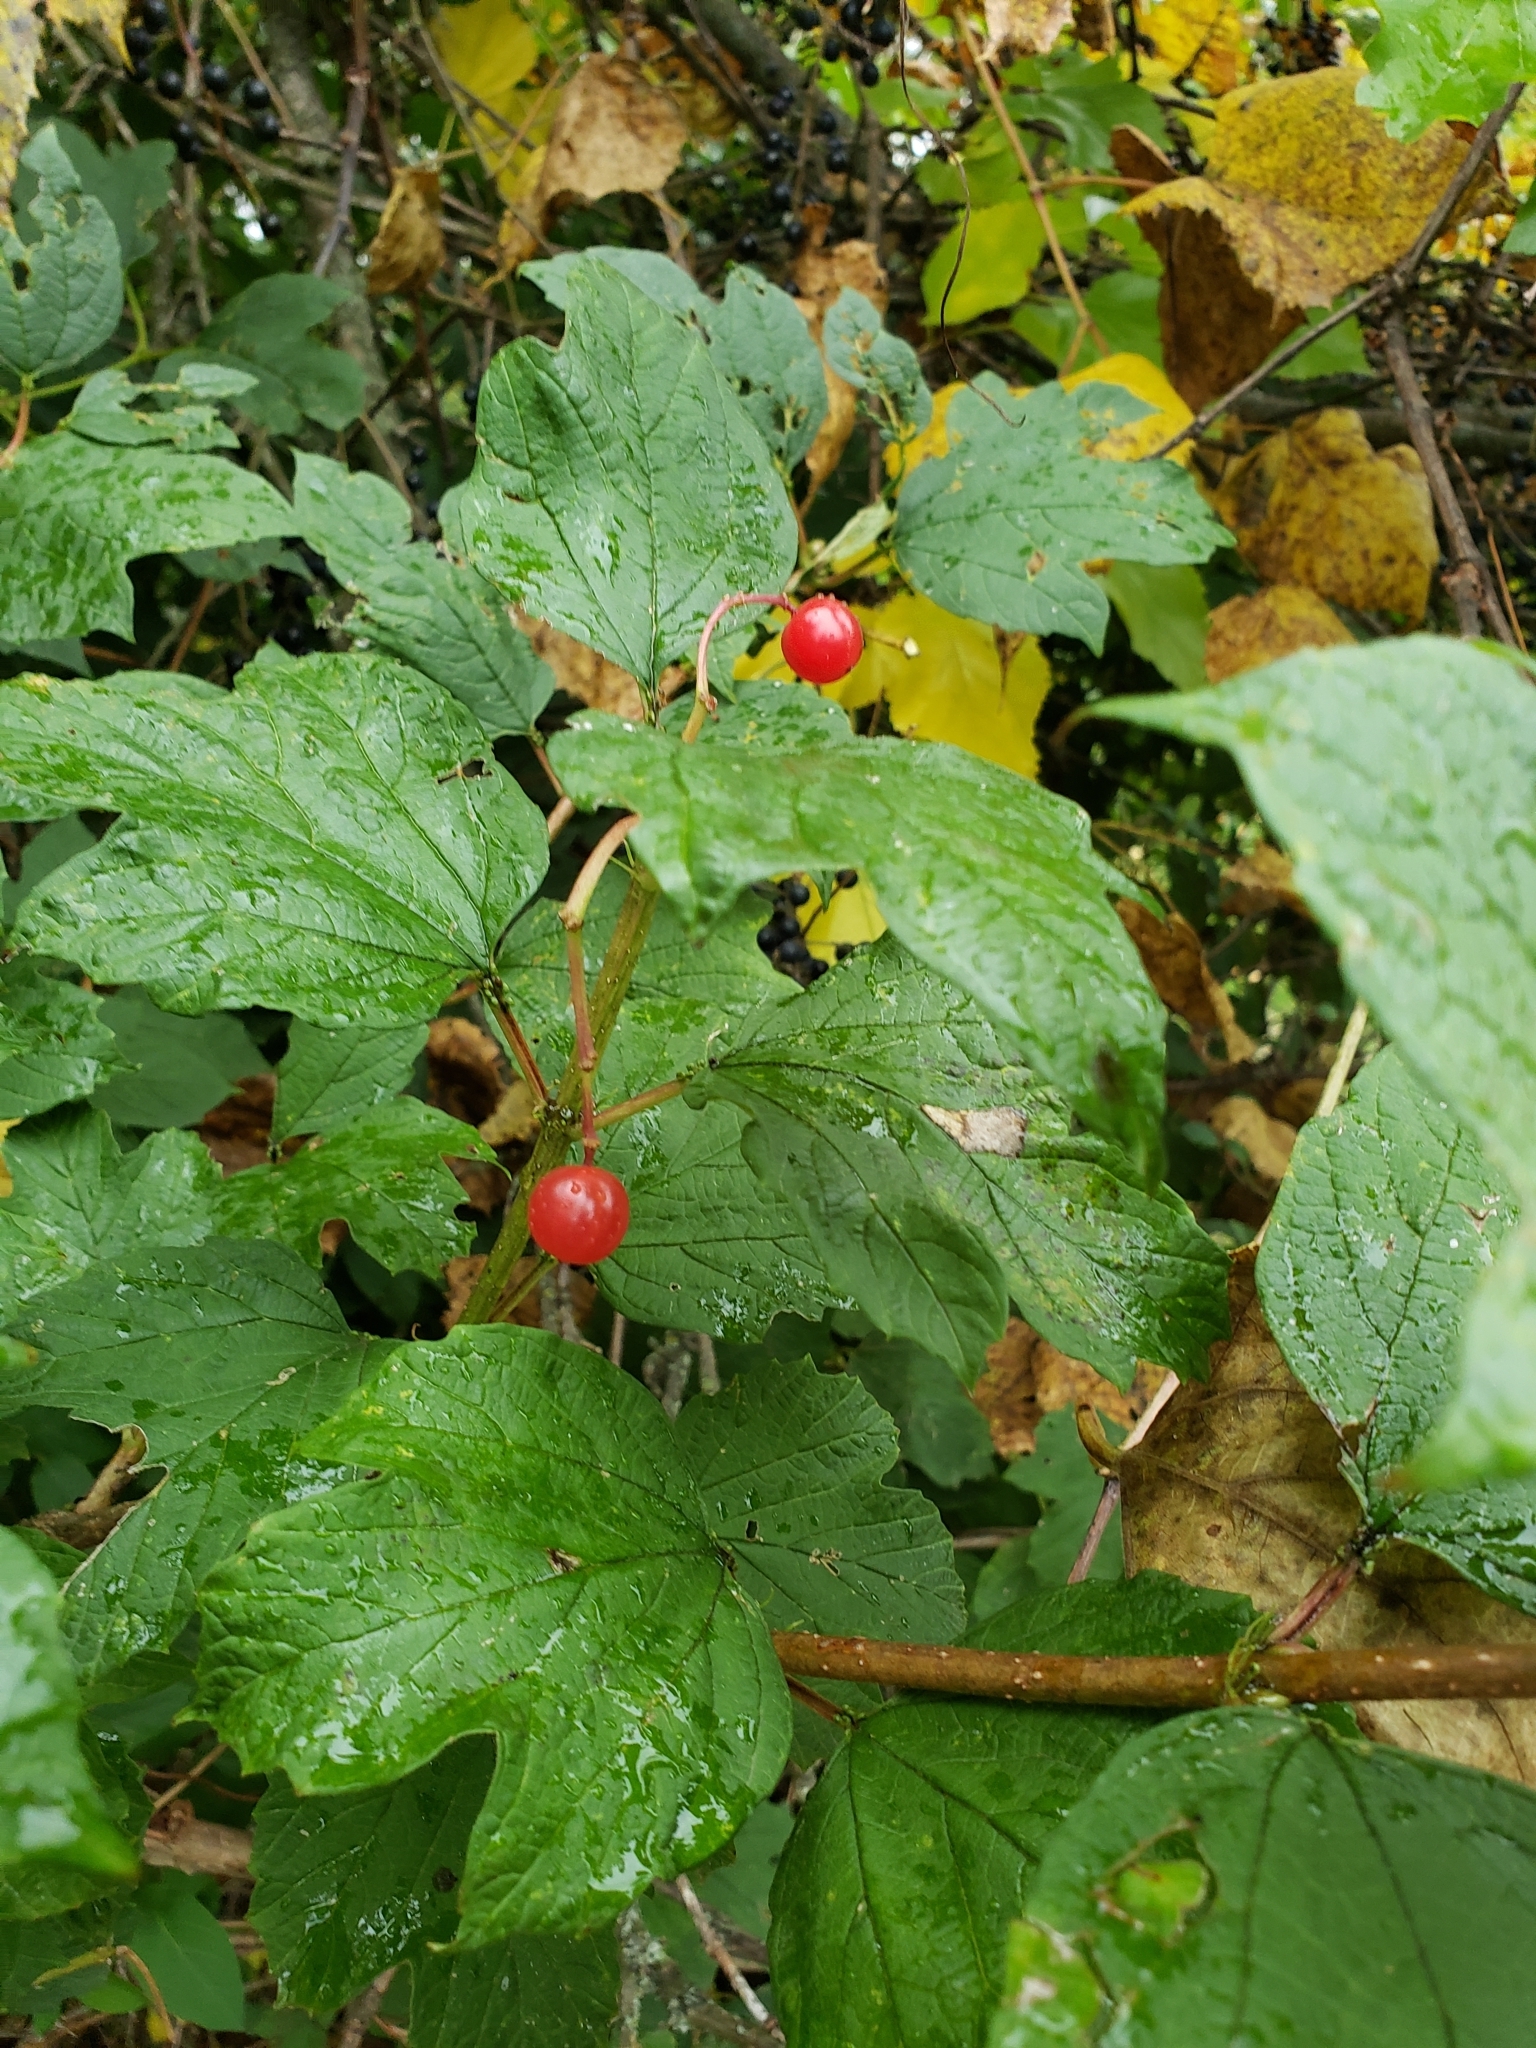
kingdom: Plantae
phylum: Tracheophyta
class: Magnoliopsida
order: Dipsacales
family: Viburnaceae
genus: Viburnum
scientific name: Viburnum opulus
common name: Guelder-rose
